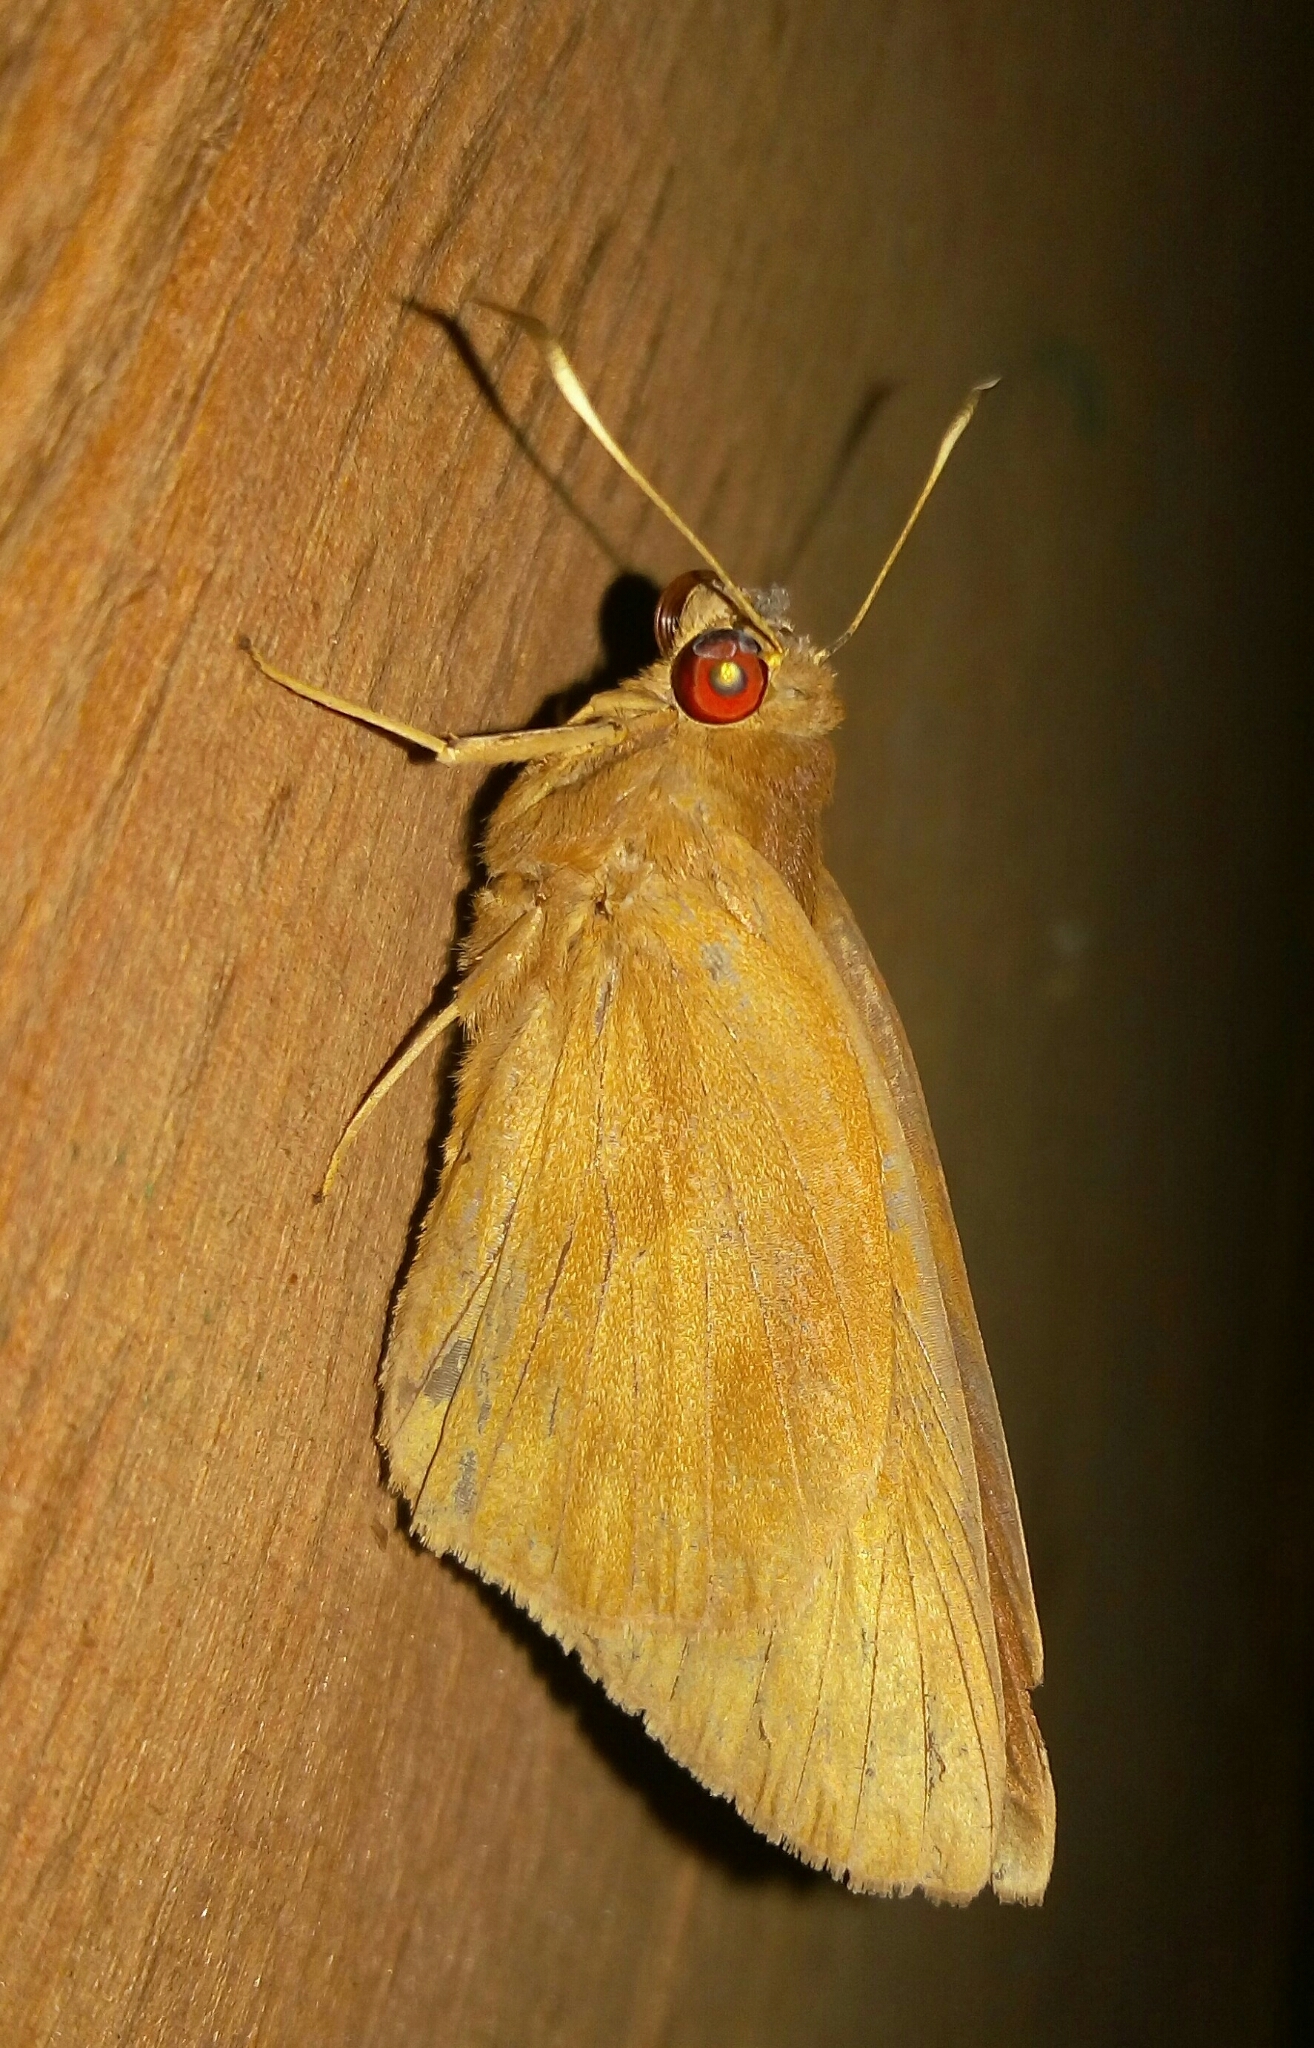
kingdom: Animalia
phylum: Arthropoda
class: Insecta
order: Lepidoptera
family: Hesperiidae
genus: Erionota
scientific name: Erionota torus
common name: Rounded palm-redeye
